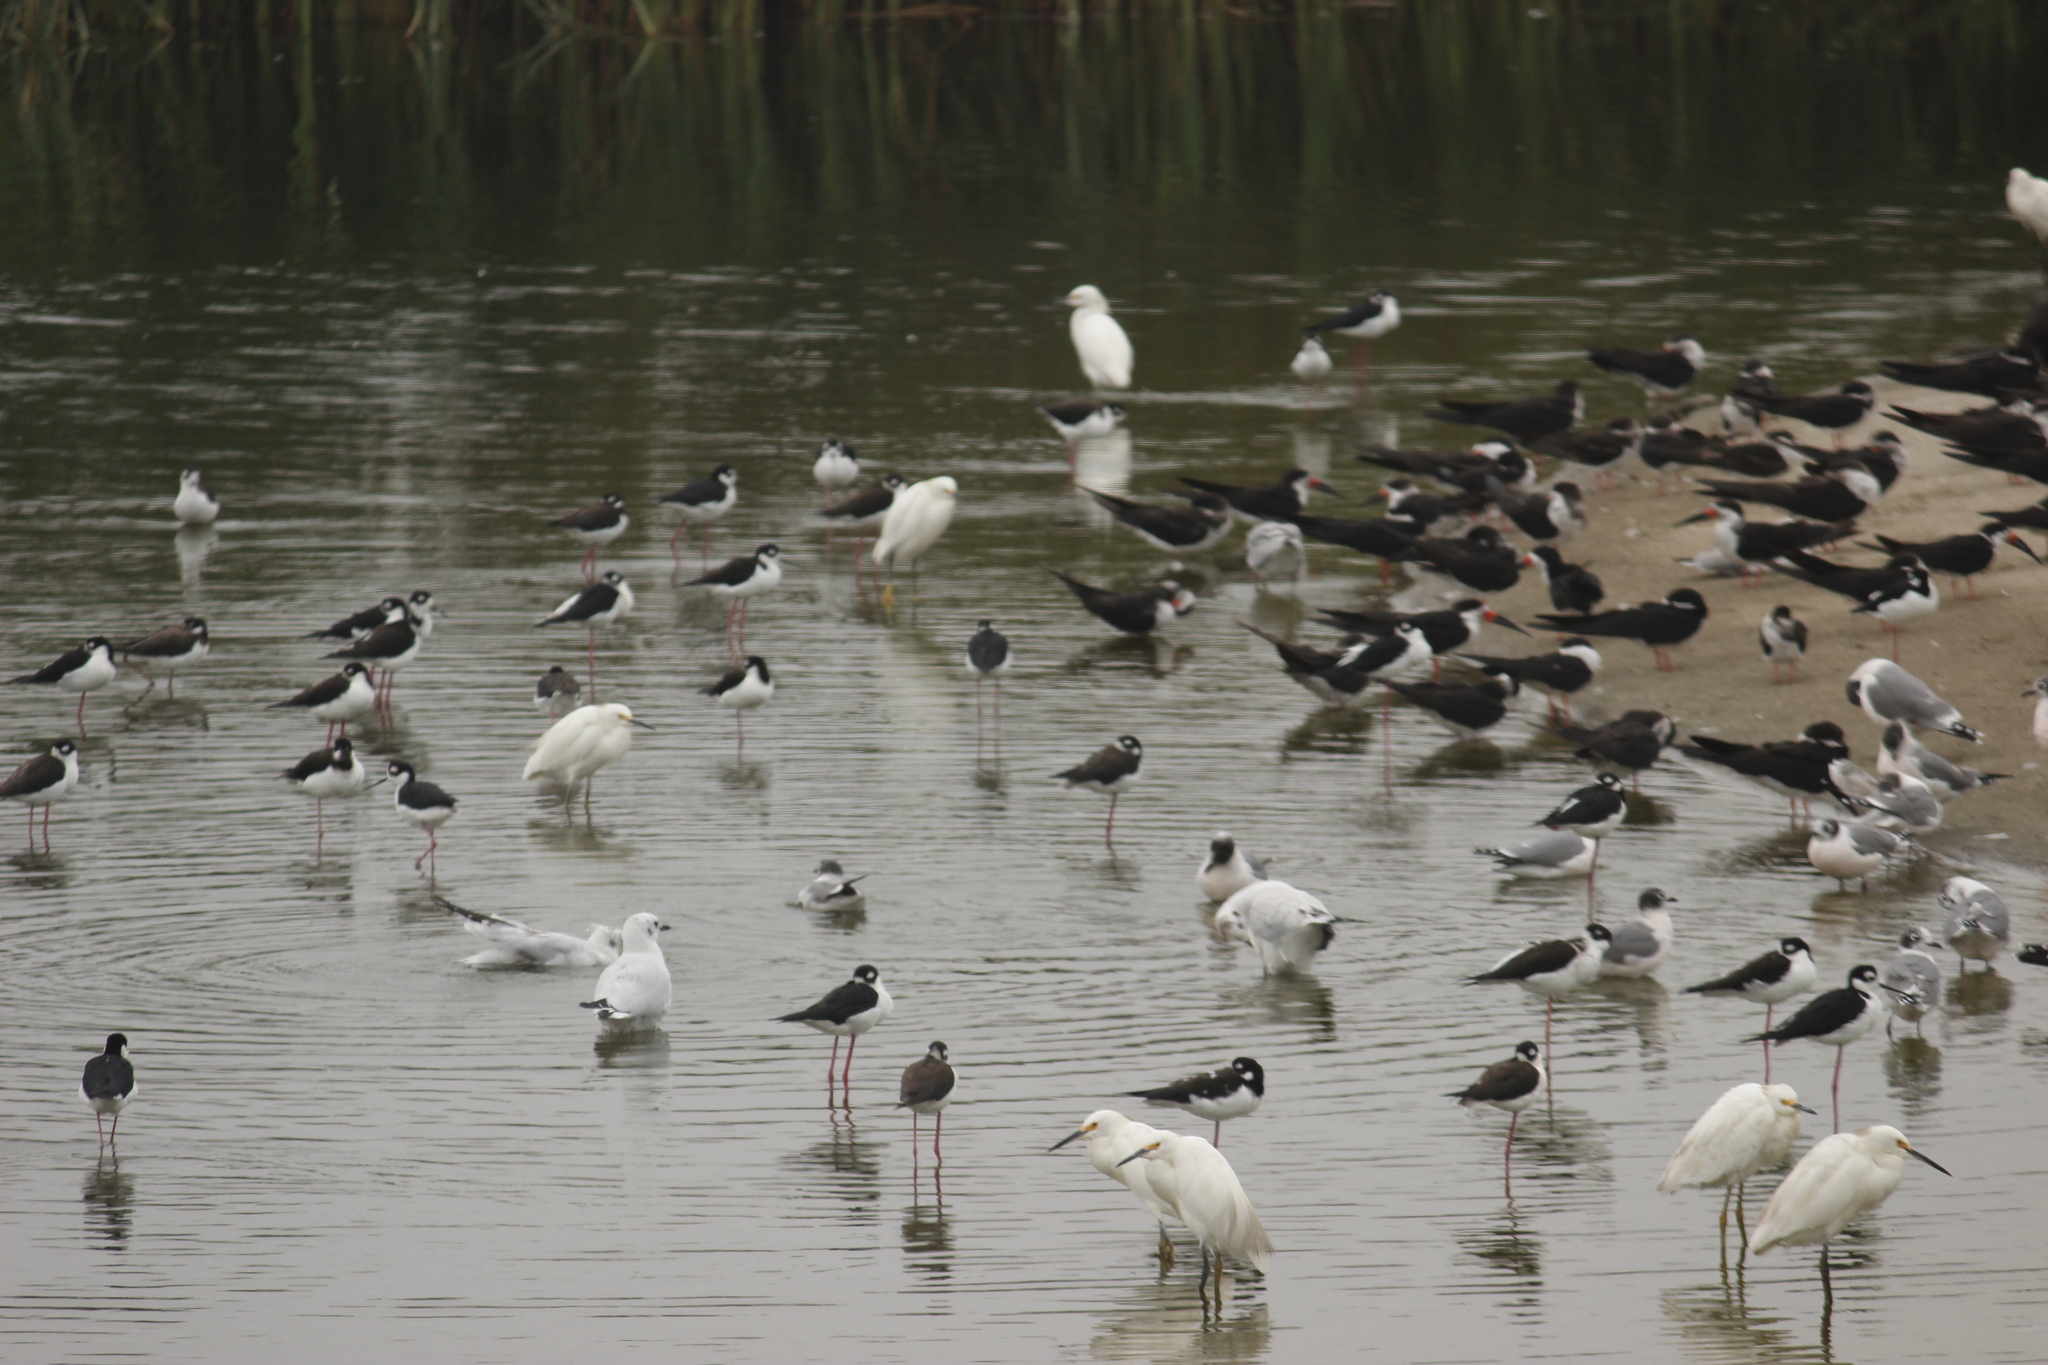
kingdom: Animalia
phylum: Chordata
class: Aves
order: Pelecaniformes
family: Ardeidae
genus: Egretta
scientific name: Egretta thula
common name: Snowy egret
